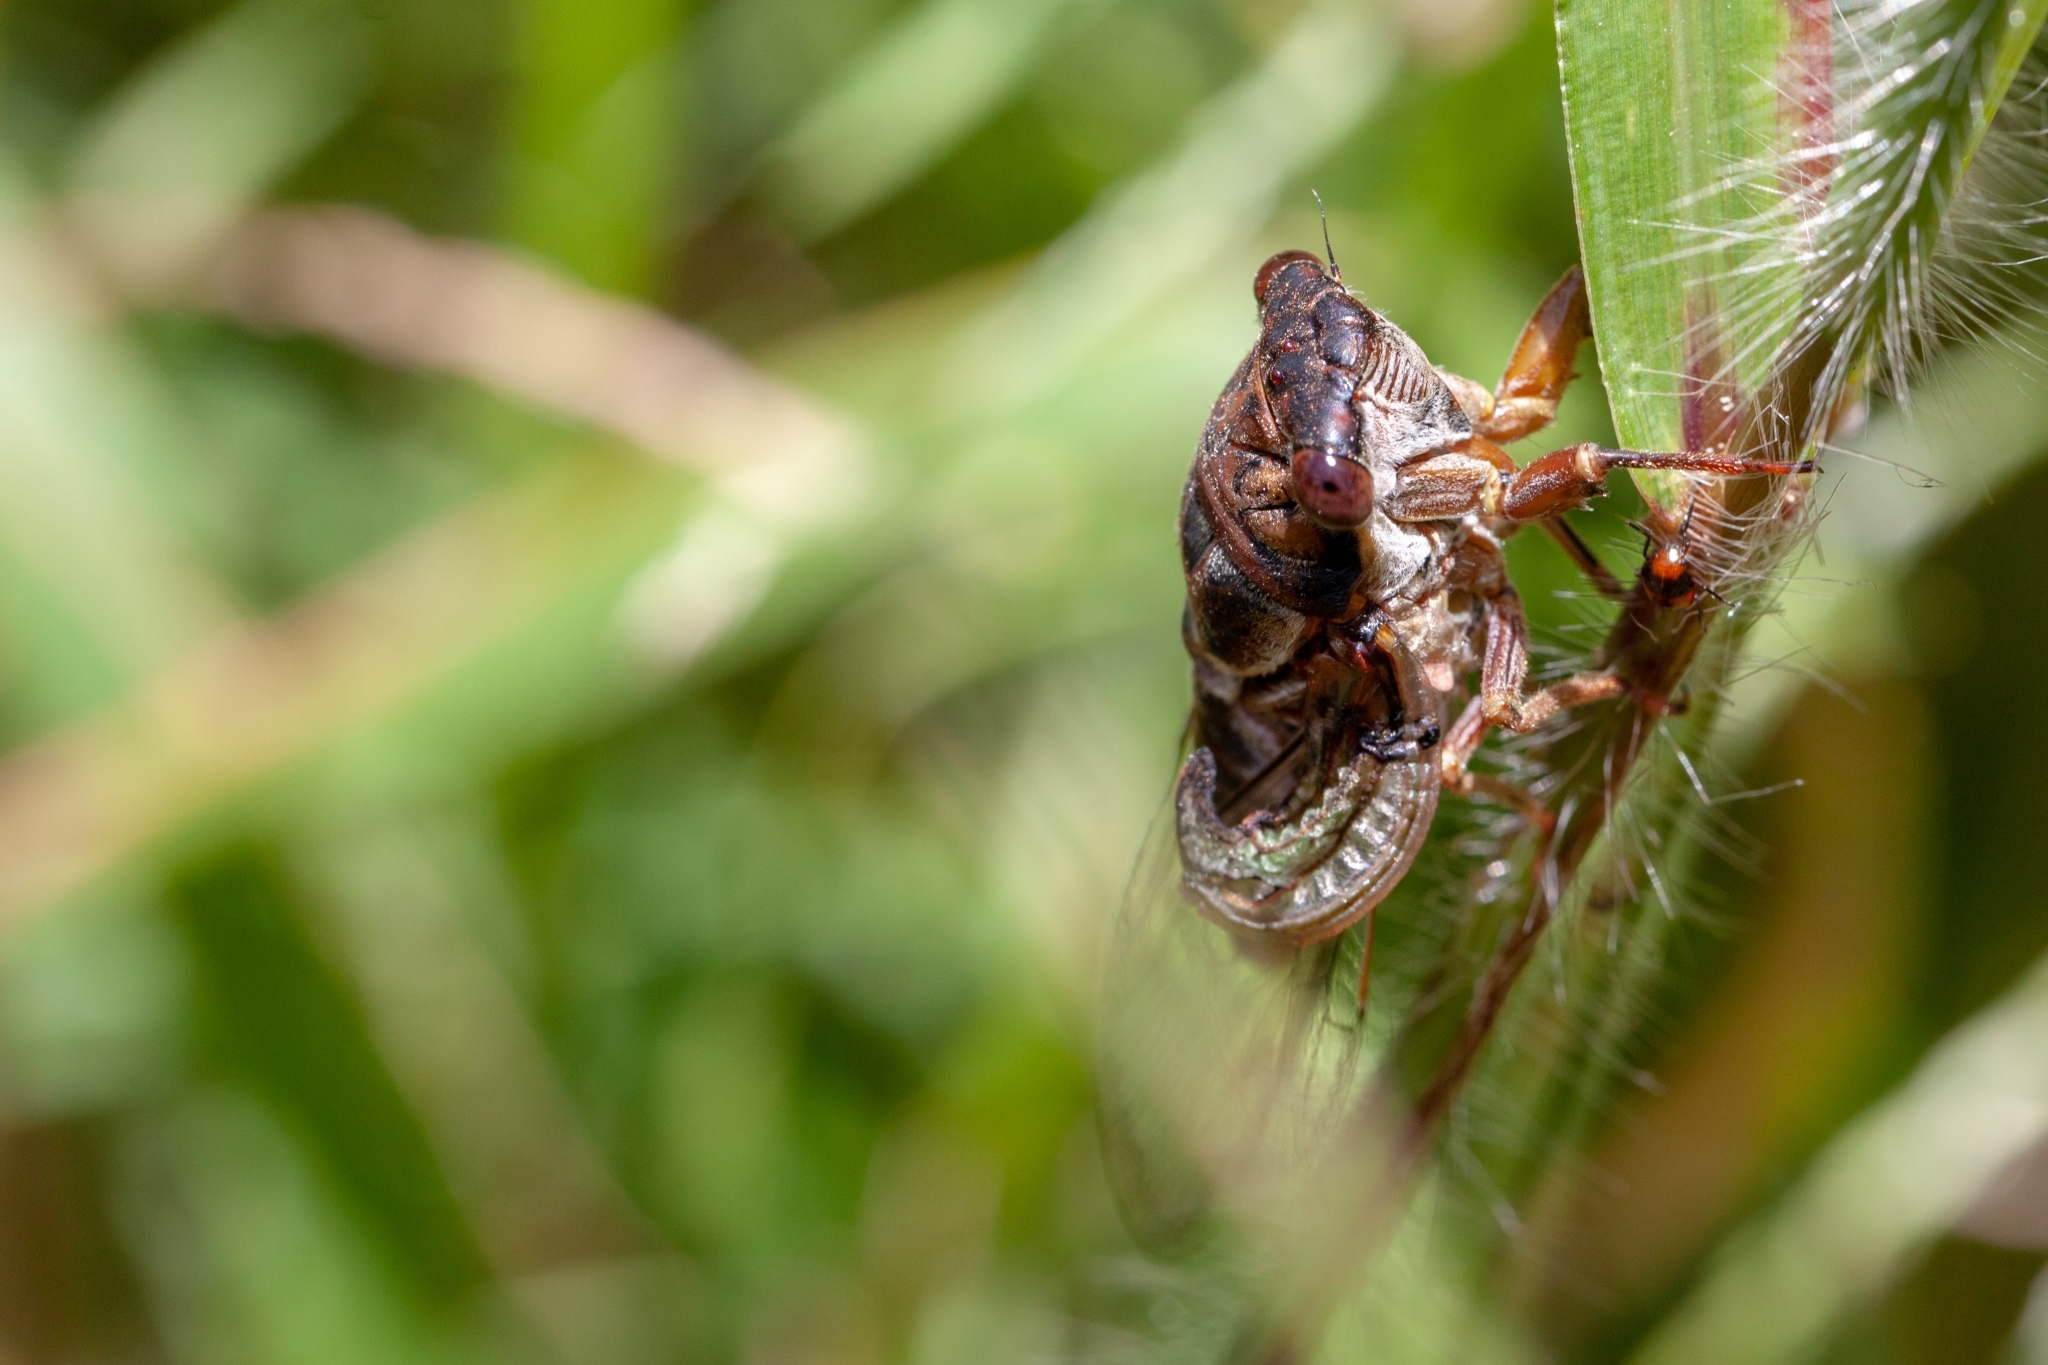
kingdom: Animalia
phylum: Arthropoda
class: Insecta
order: Hemiptera
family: Cicadidae
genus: Diceroprocta
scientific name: Diceroprocta olympusa
